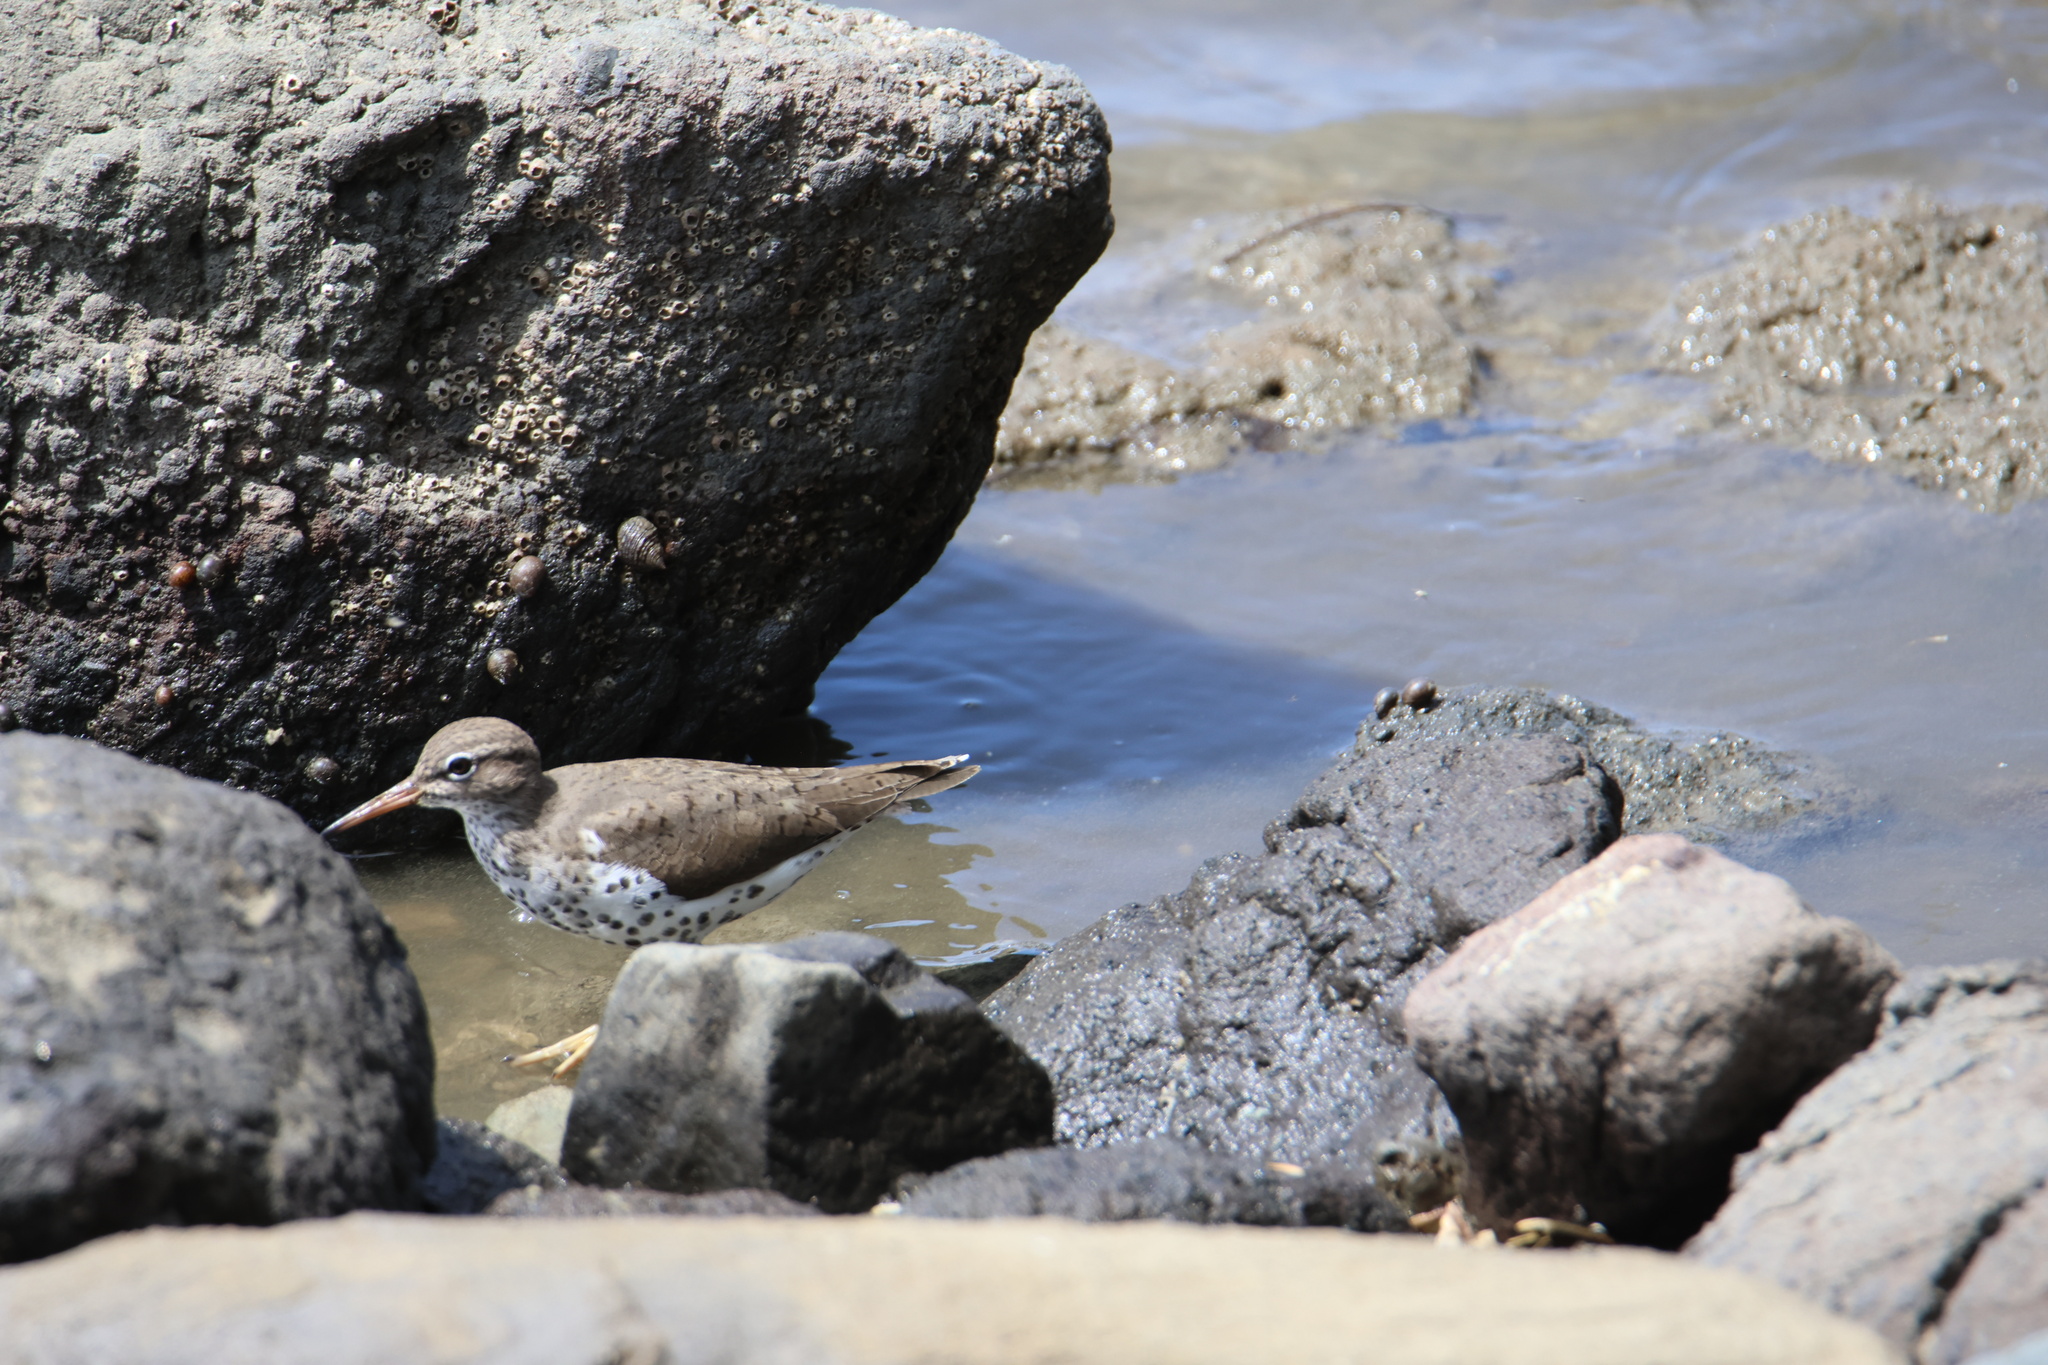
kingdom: Animalia
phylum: Chordata
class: Aves
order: Charadriiformes
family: Scolopacidae
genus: Actitis
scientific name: Actitis macularius
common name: Spotted sandpiper
